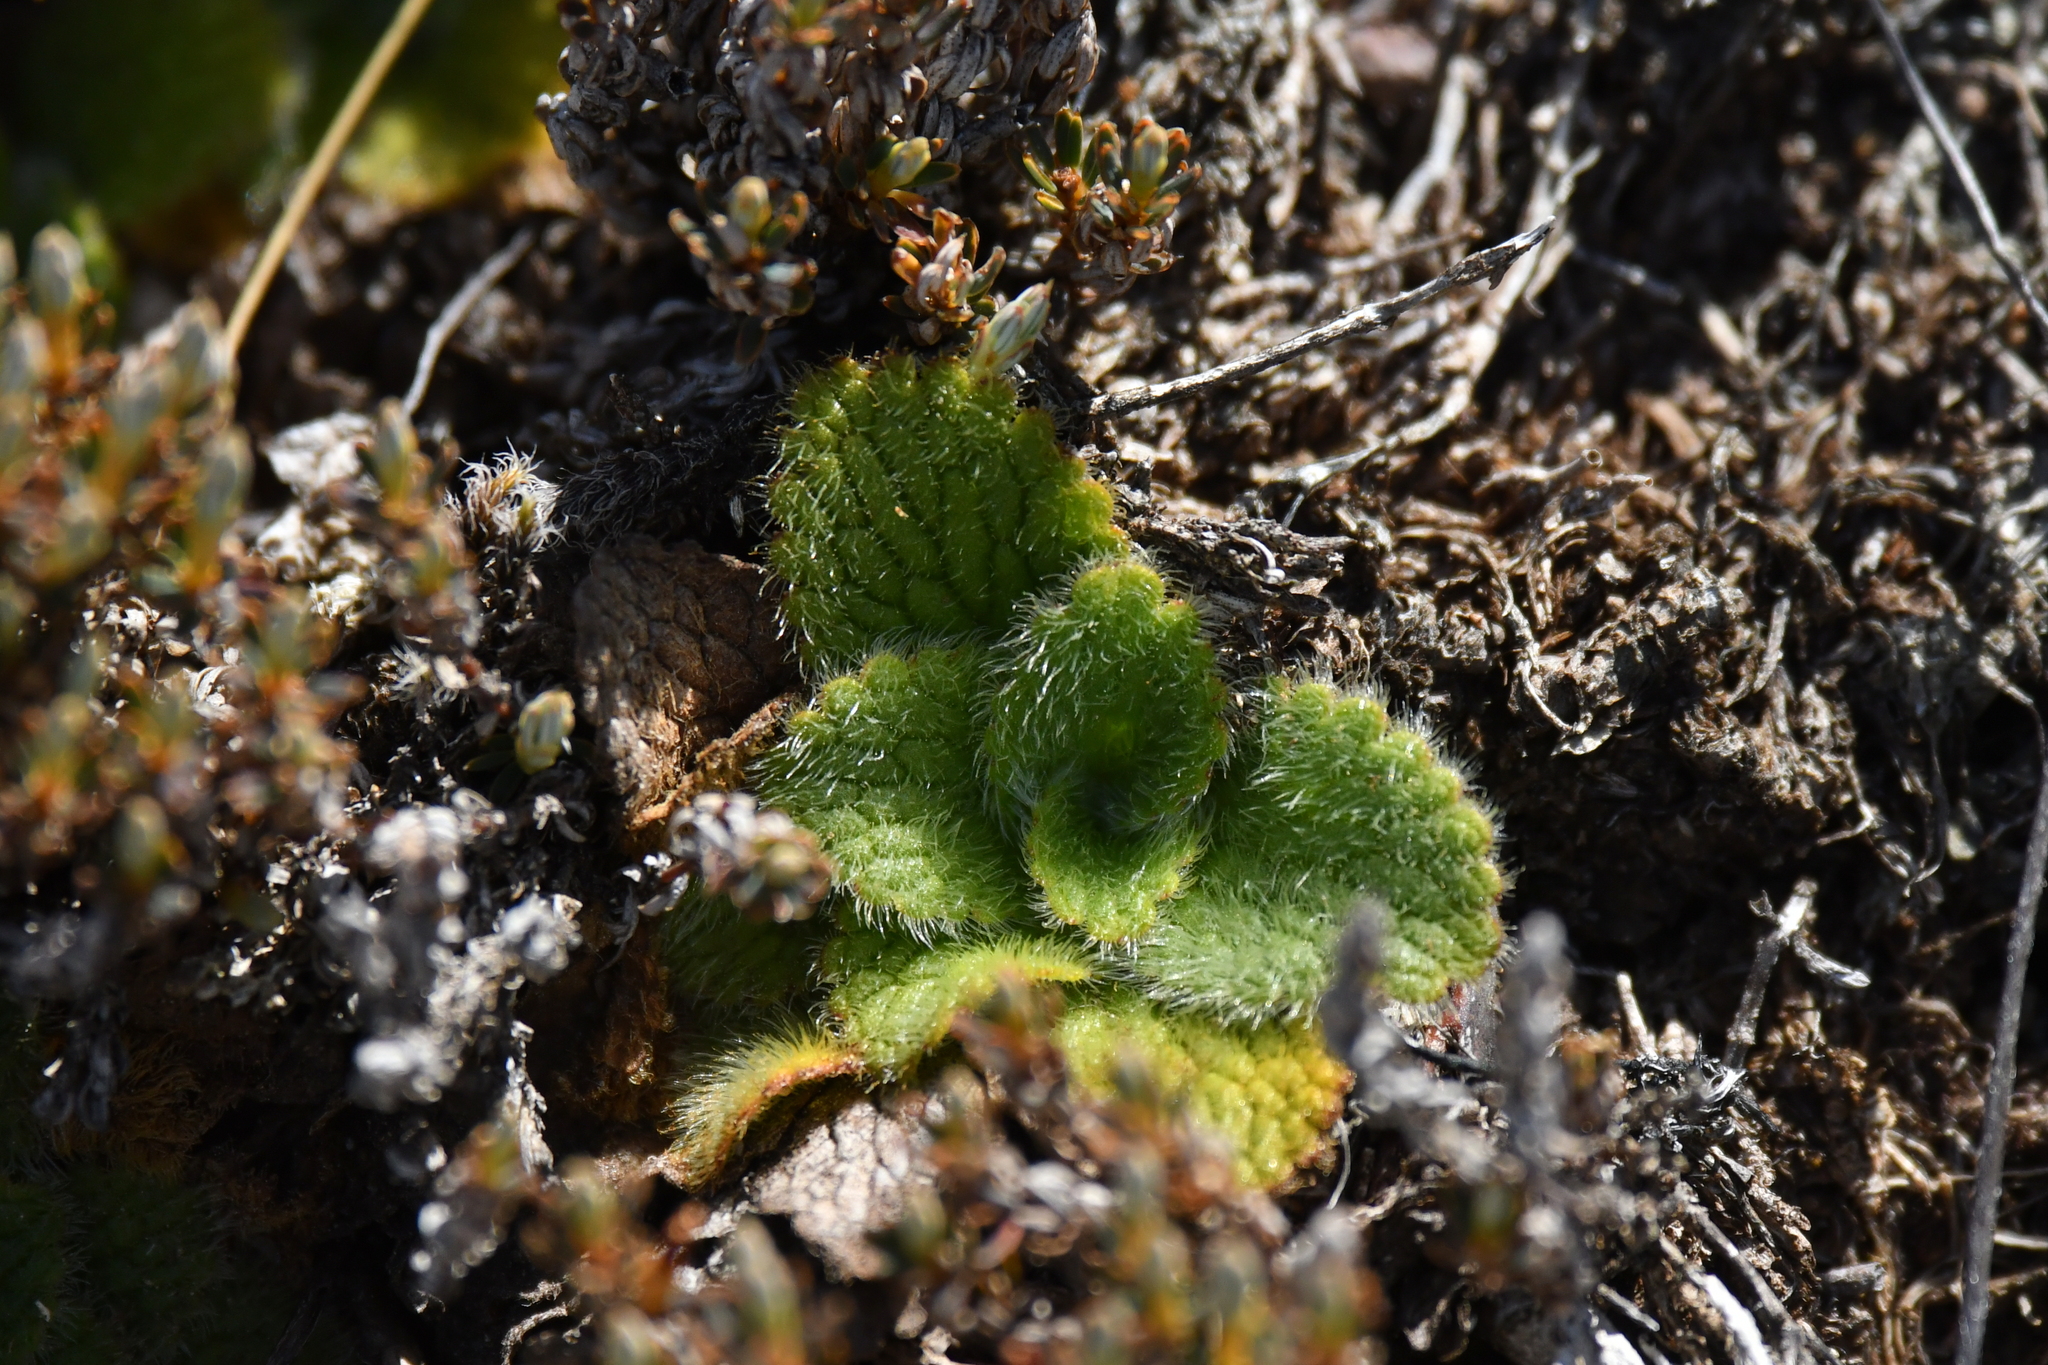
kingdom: Plantae
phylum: Tracheophyta
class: Magnoliopsida
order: Lamiales
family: Plantaginaceae
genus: Ourisia
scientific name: Ourisia sessilifolia
